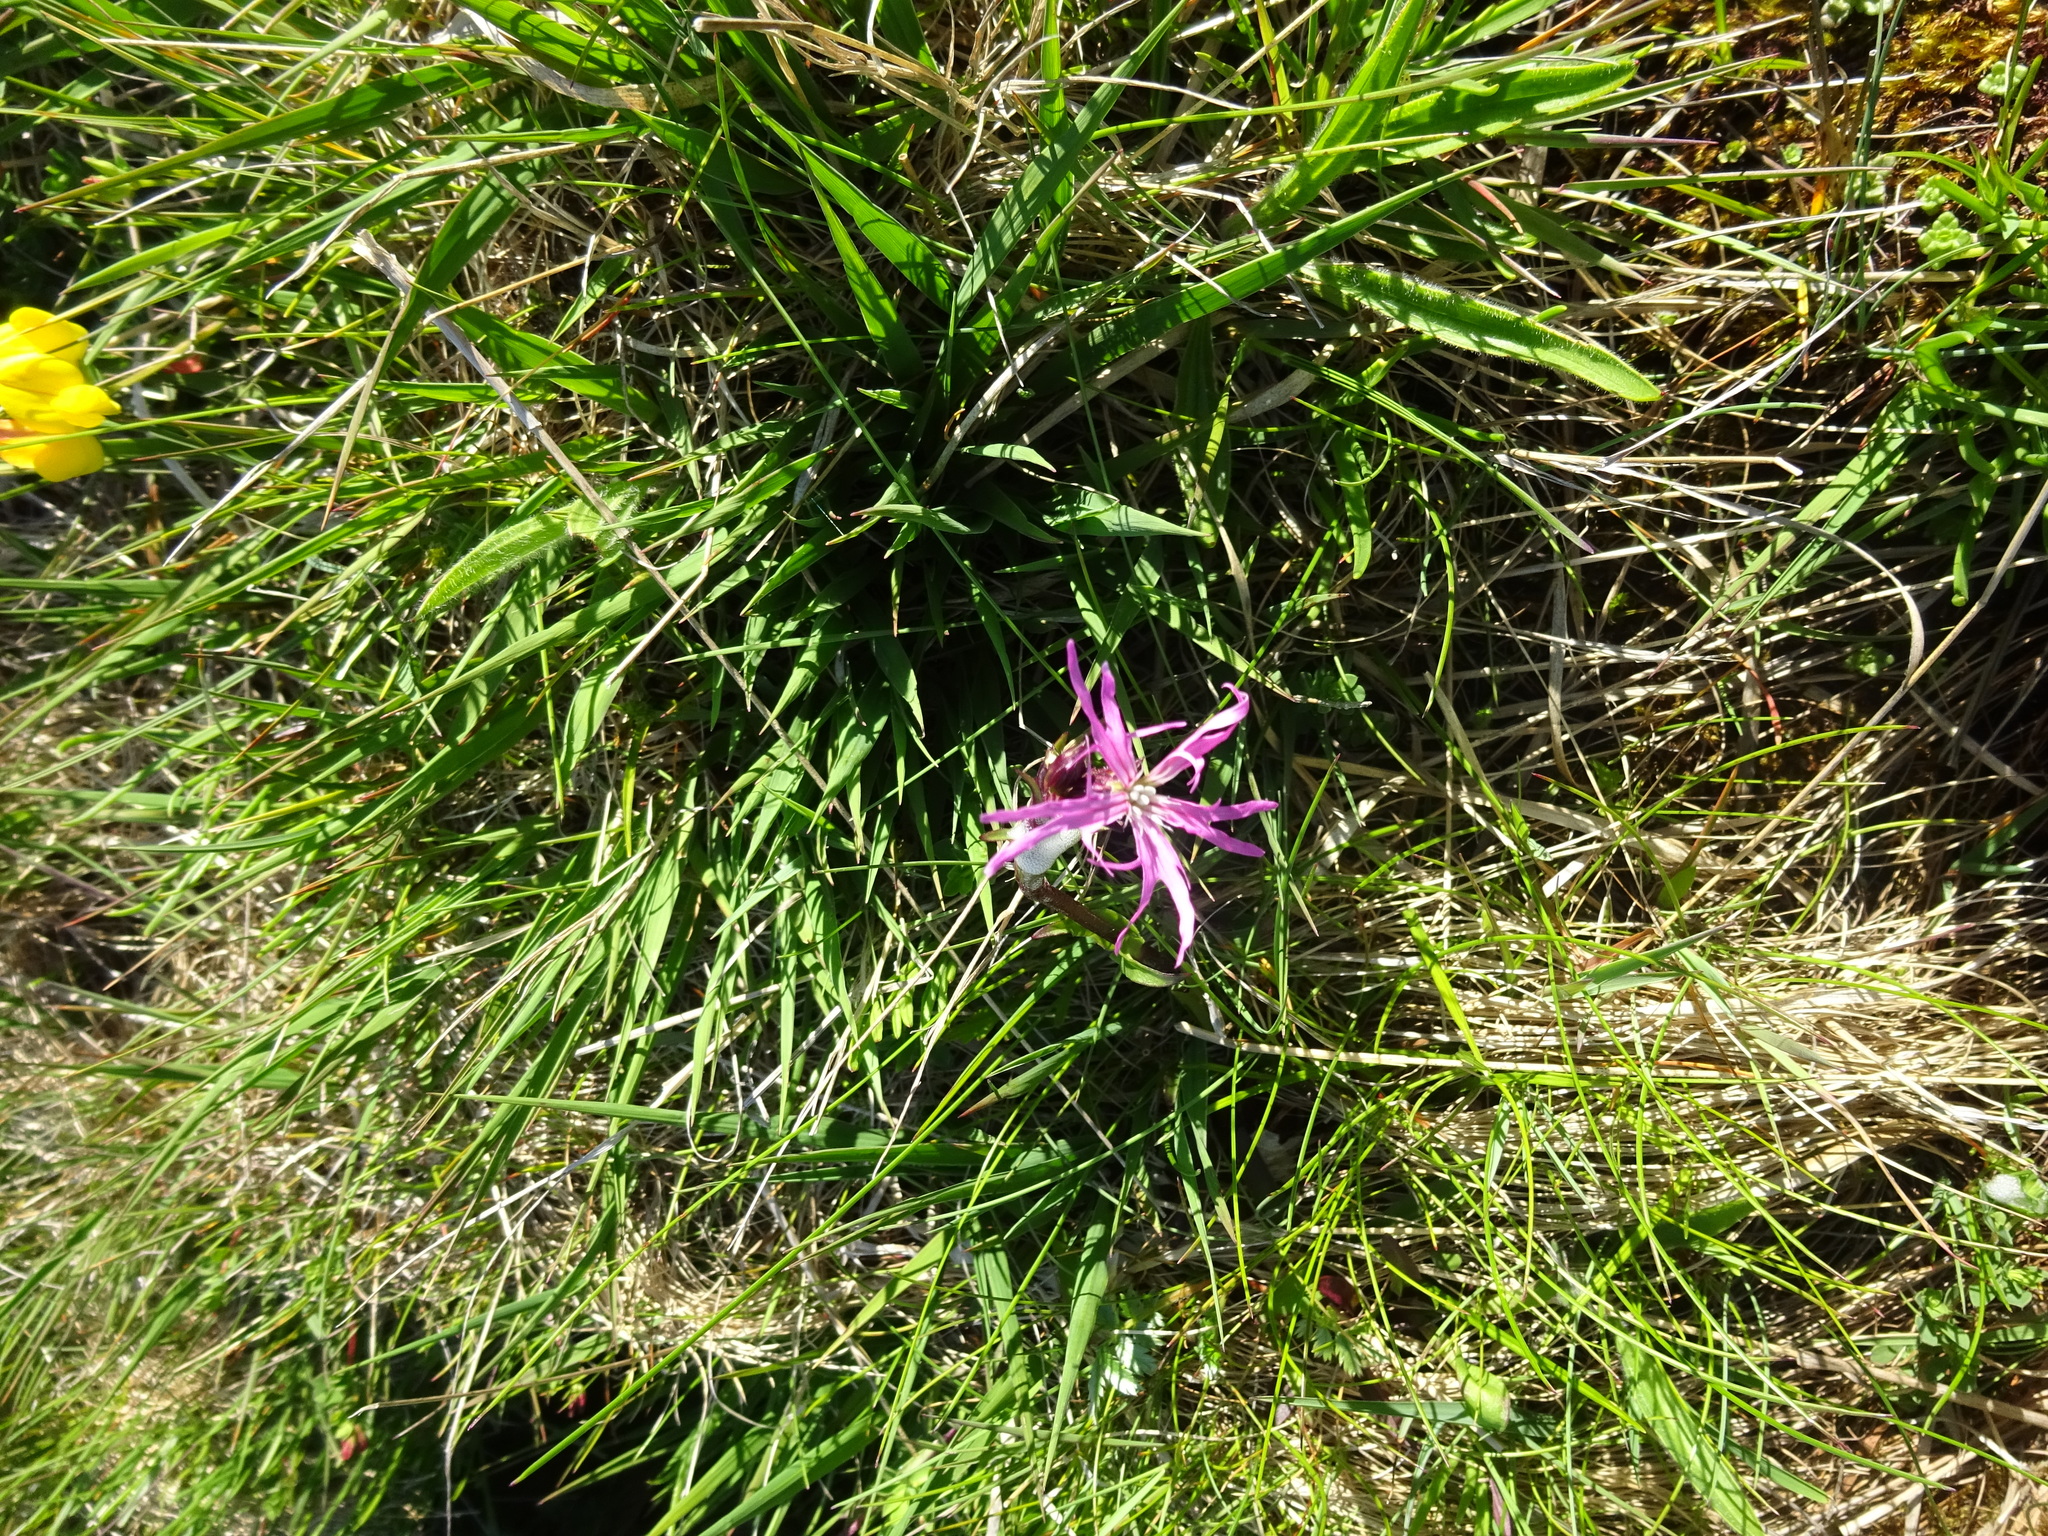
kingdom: Plantae
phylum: Tracheophyta
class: Magnoliopsida
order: Caryophyllales
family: Caryophyllaceae
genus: Silene
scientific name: Silene flos-cuculi
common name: Ragged-robin
